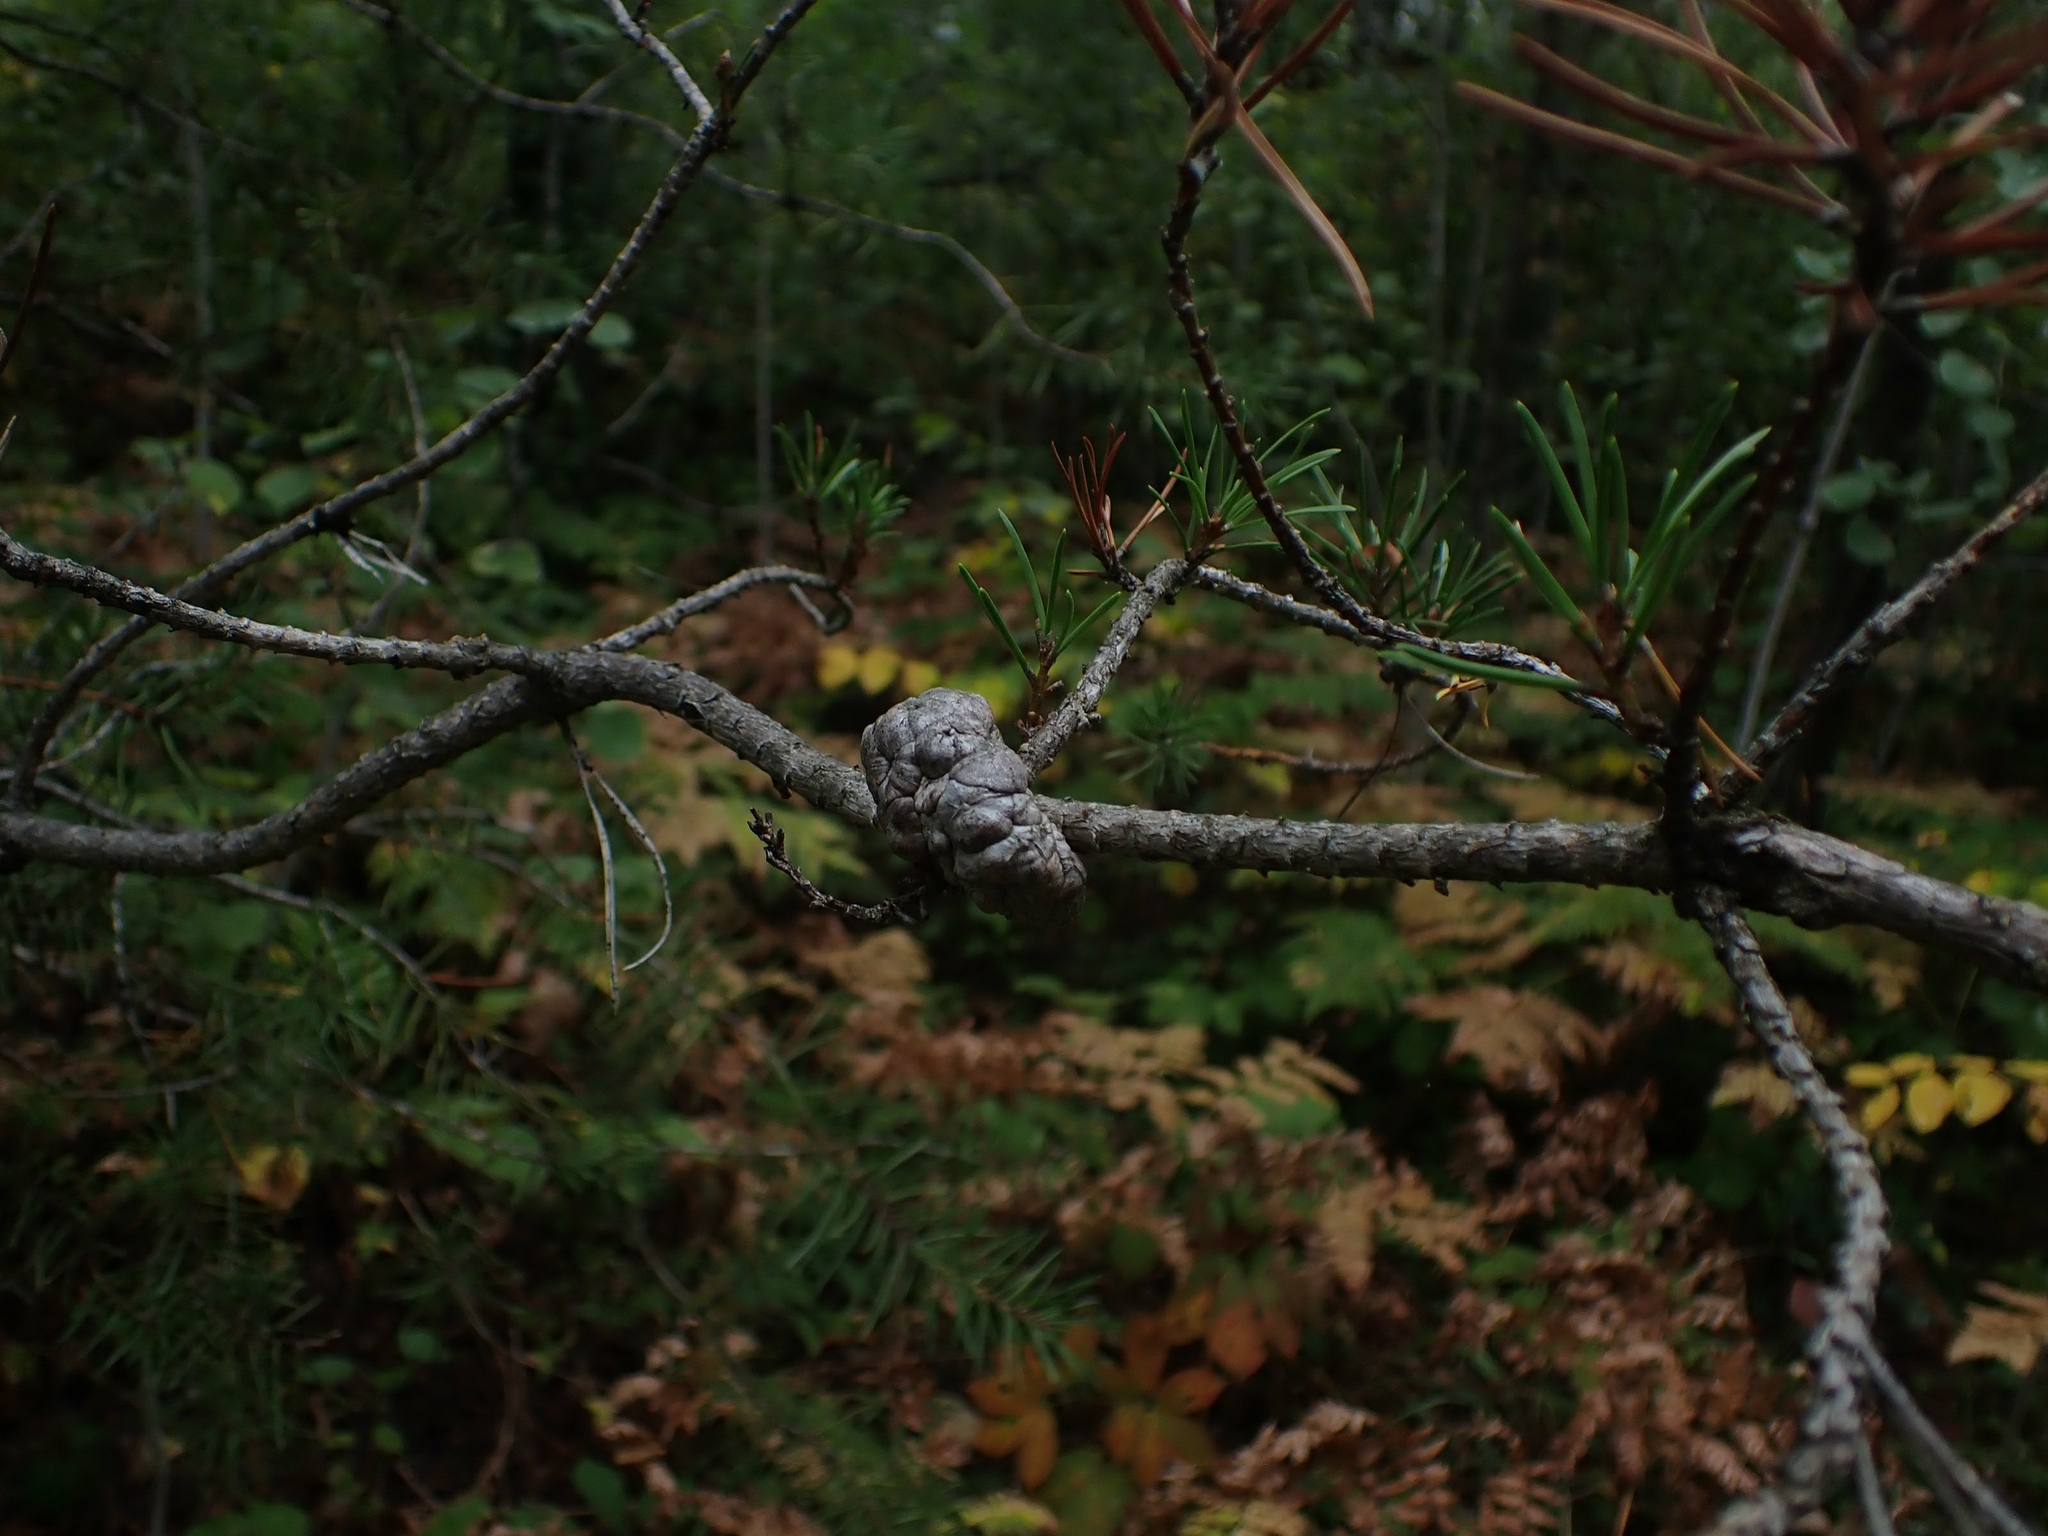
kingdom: Plantae
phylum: Tracheophyta
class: Pinopsida
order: Pinales
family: Pinaceae
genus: Pinus
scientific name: Pinus banksiana
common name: Jack pine
